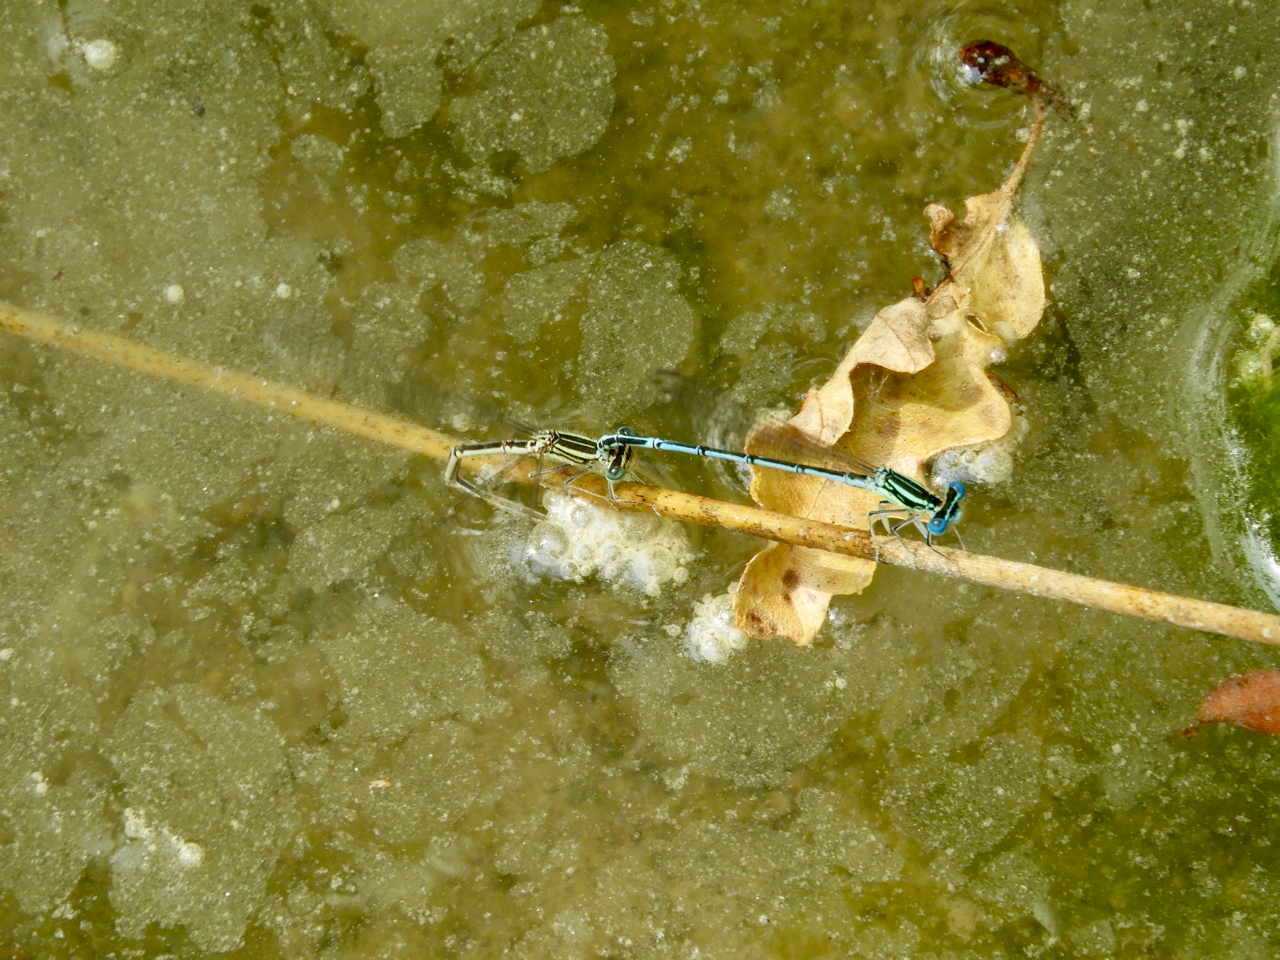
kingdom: Animalia
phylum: Arthropoda
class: Insecta
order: Odonata
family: Platycnemididae
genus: Platycnemis
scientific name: Platycnemis pennipes
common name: White-legged damselfly
